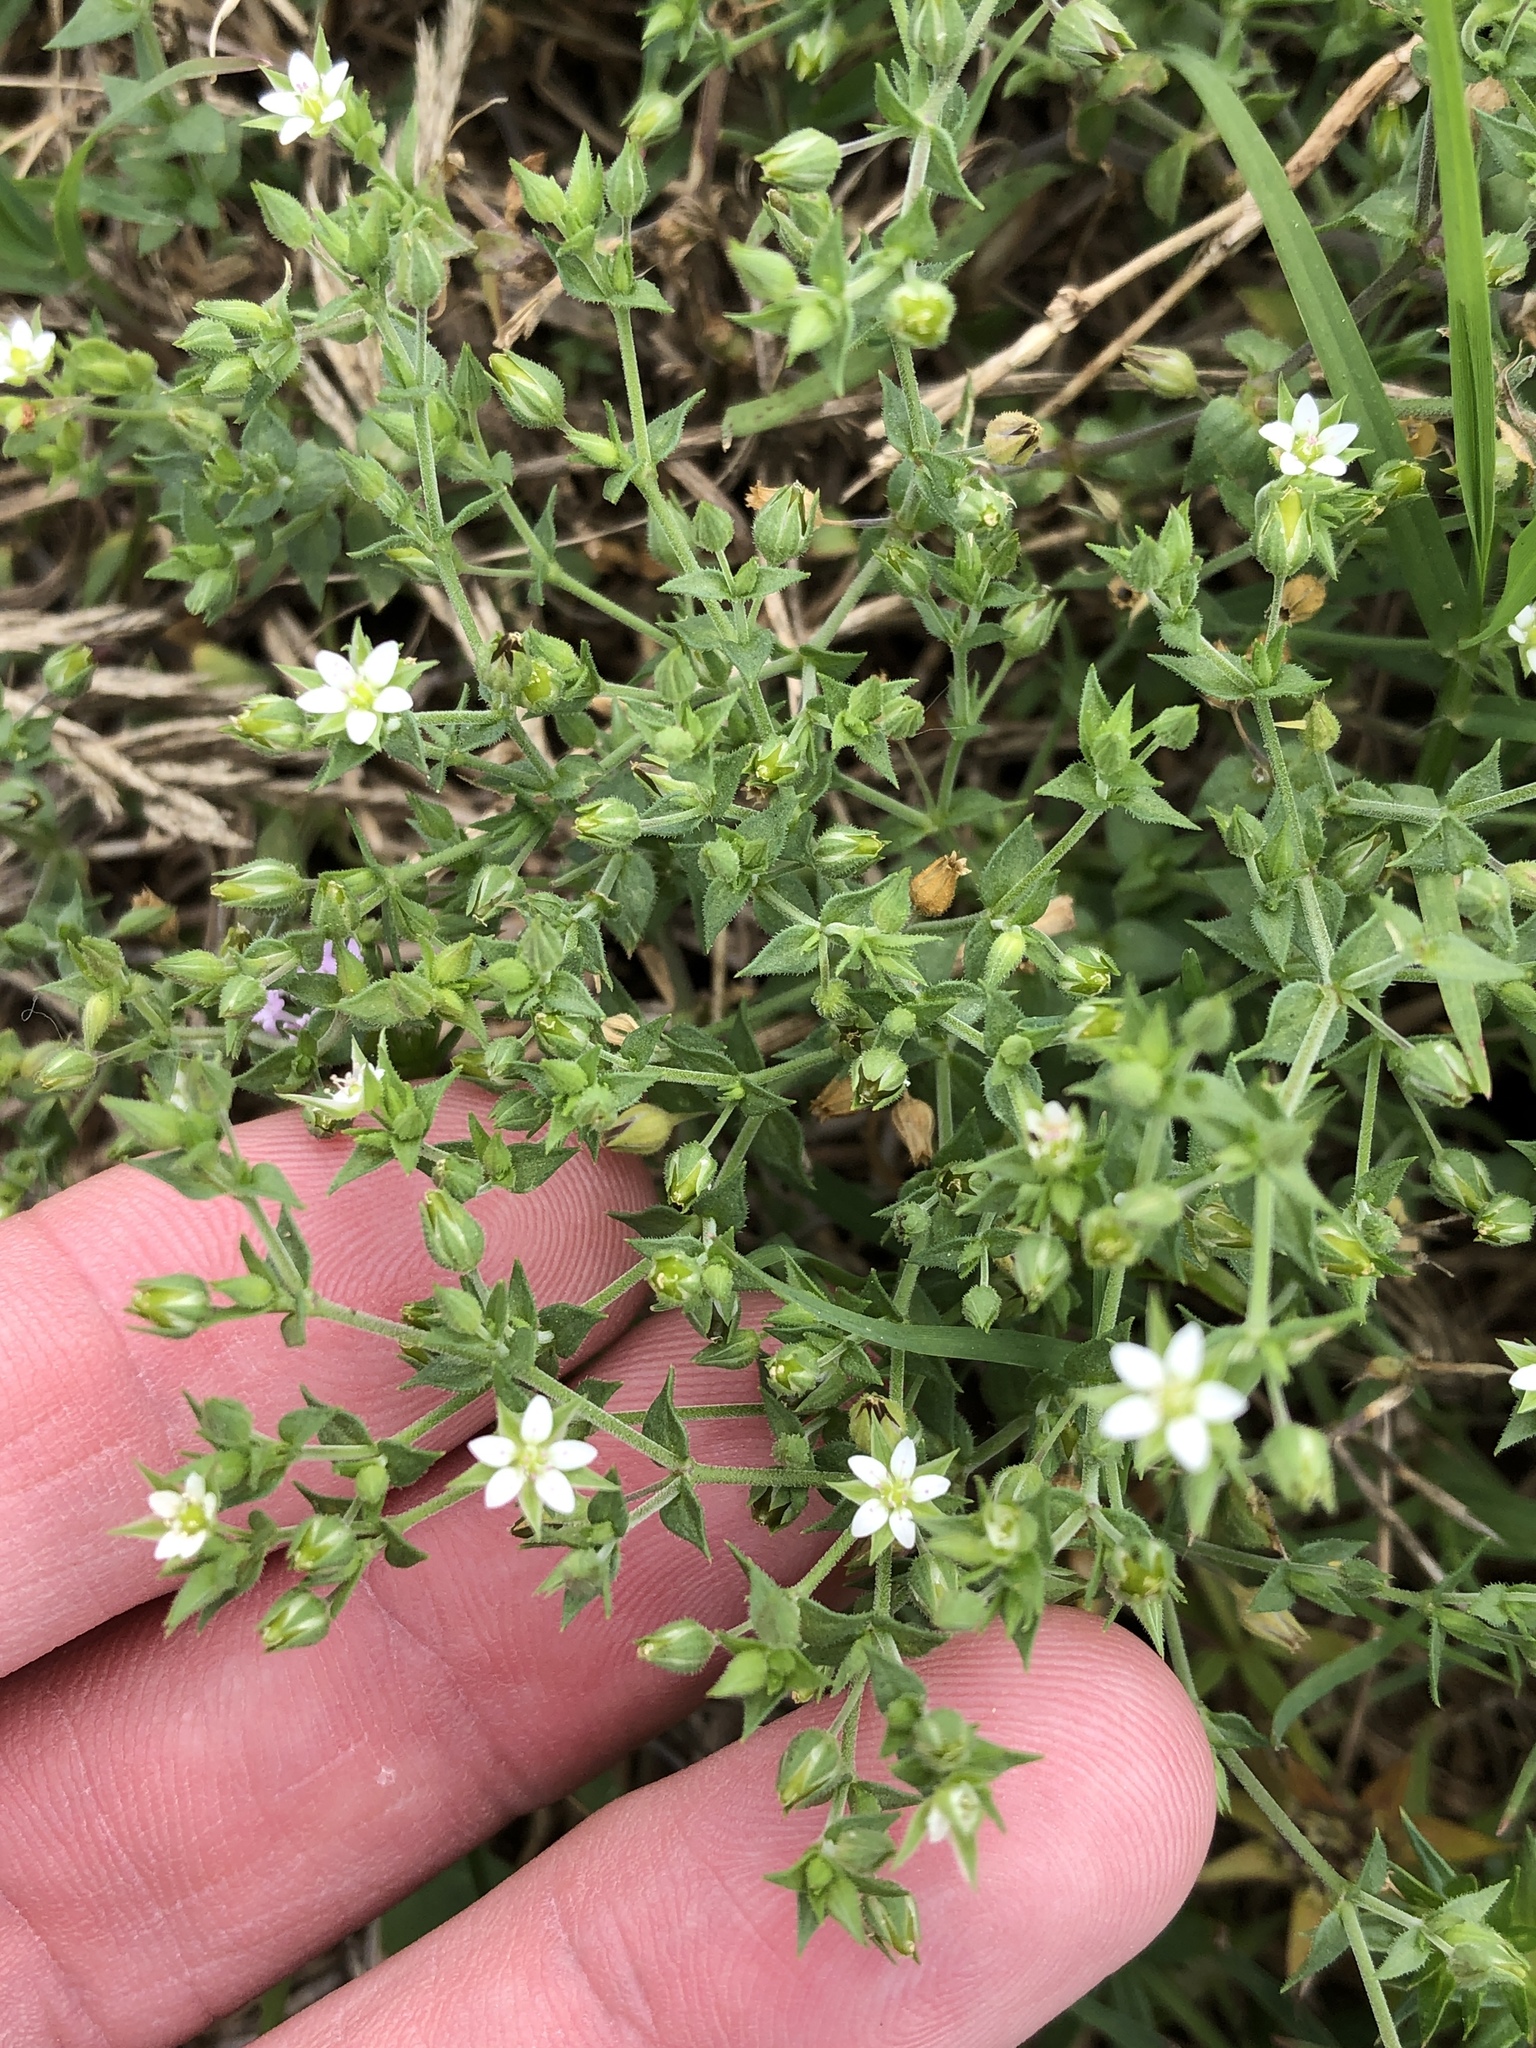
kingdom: Plantae
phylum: Tracheophyta
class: Magnoliopsida
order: Caryophyllales
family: Caryophyllaceae
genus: Arenaria
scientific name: Arenaria serpyllifolia
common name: Thyme-leaved sandwort
